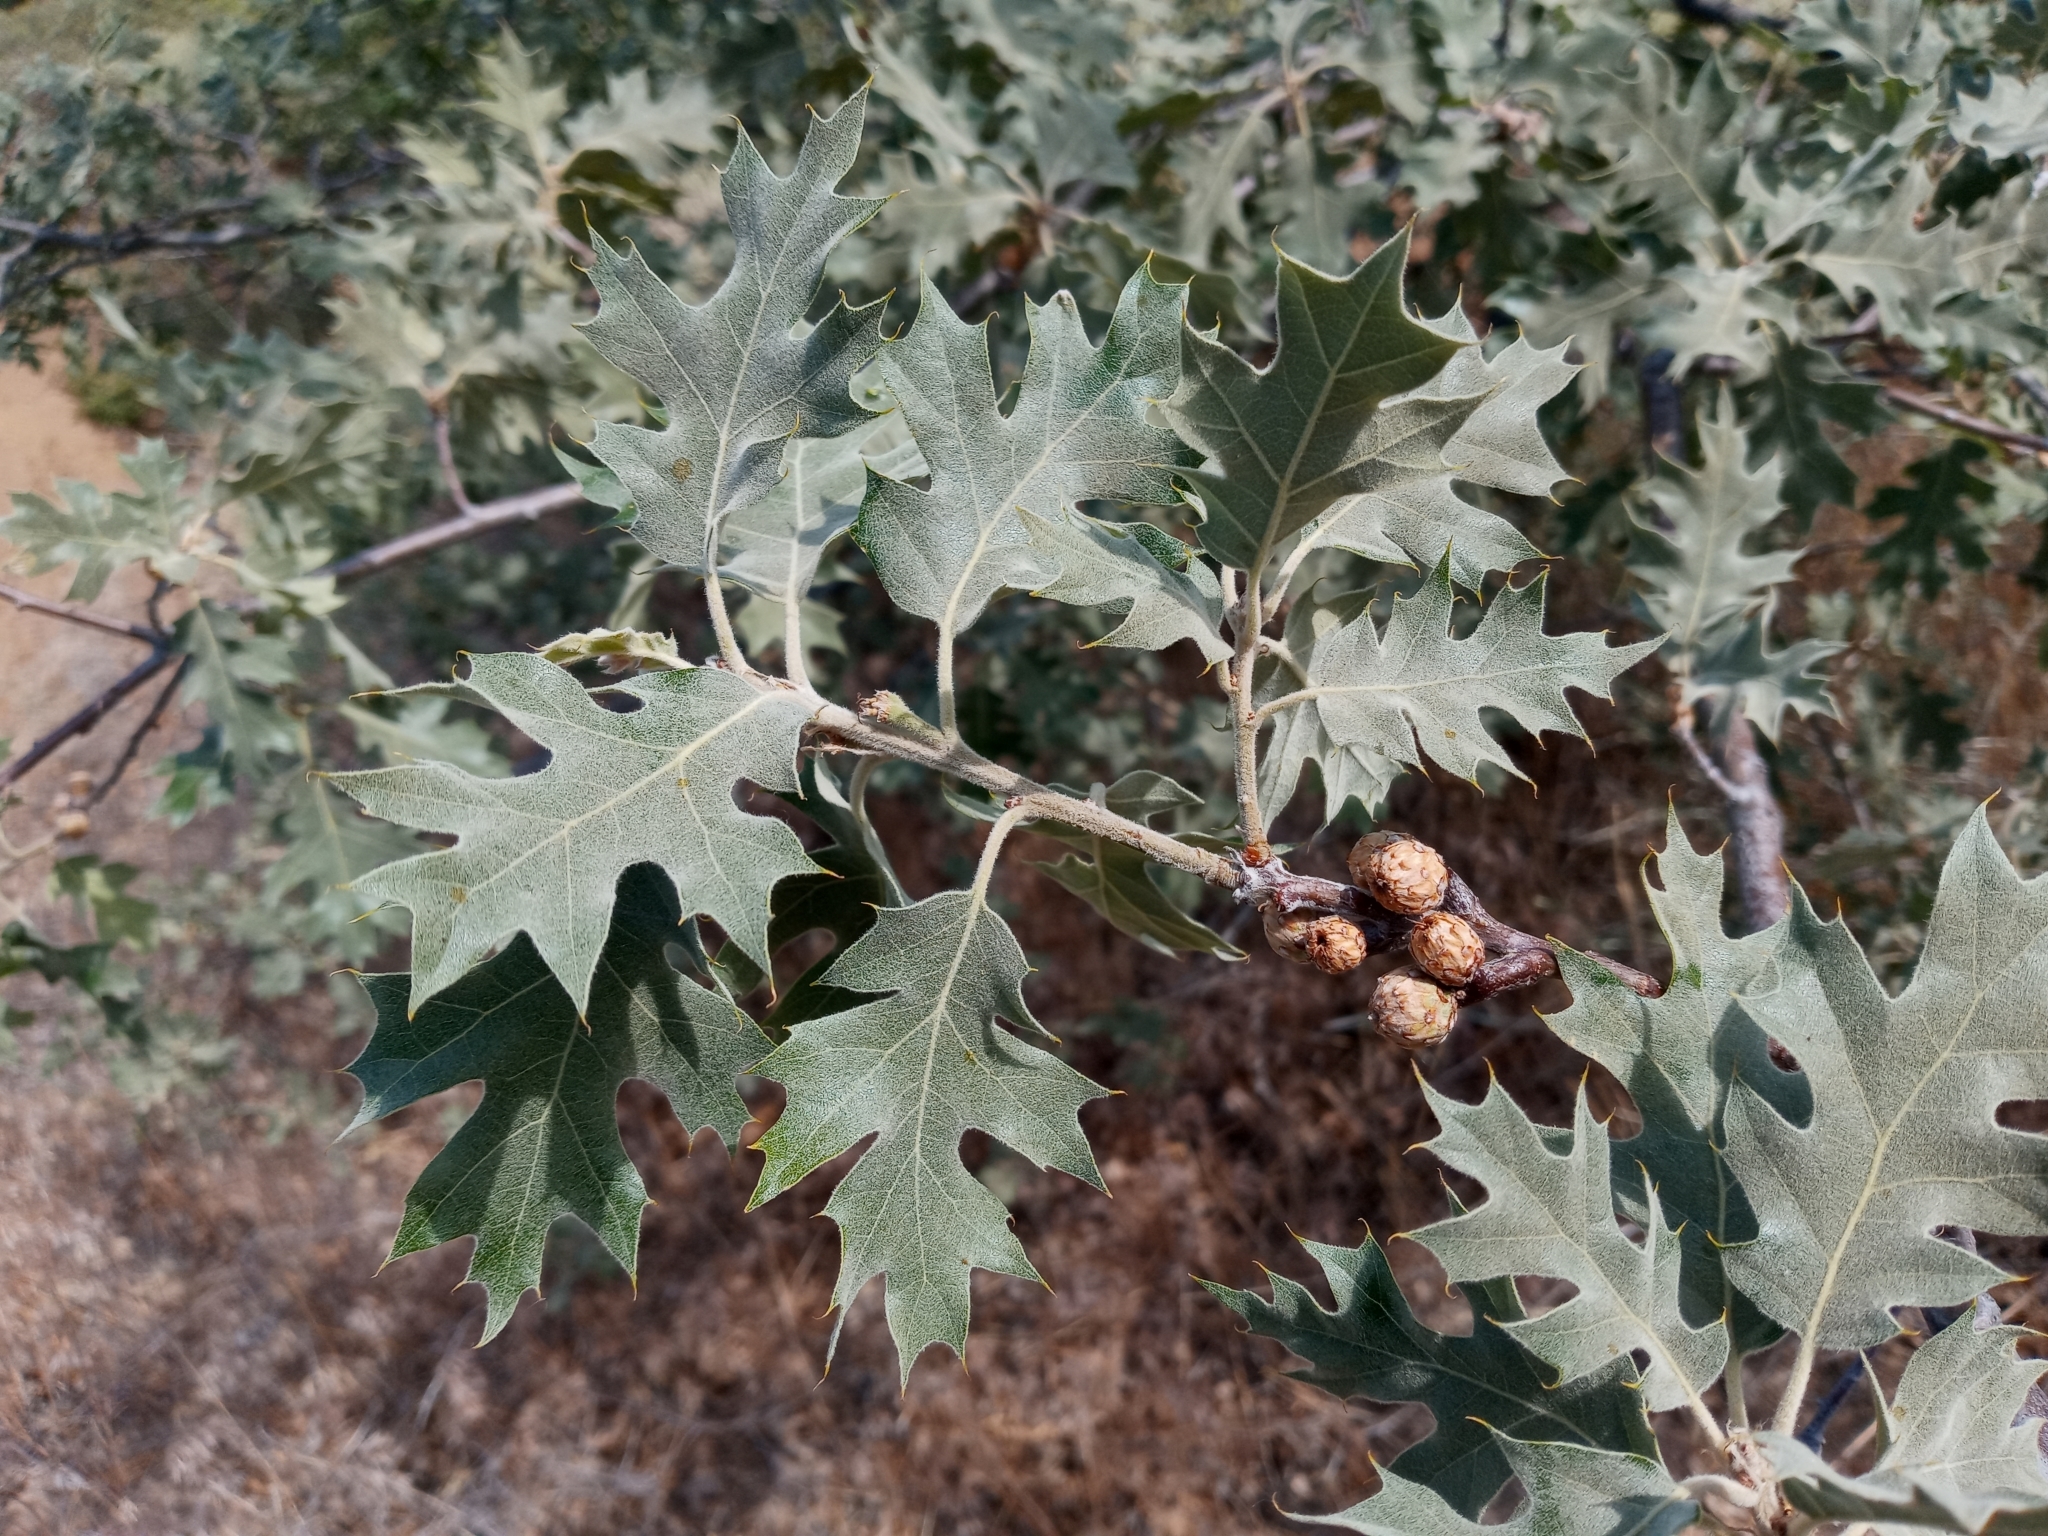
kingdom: Plantae
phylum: Tracheophyta
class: Magnoliopsida
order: Fagales
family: Fagaceae
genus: Quercus
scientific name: Quercus kelloggii
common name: California black oak
